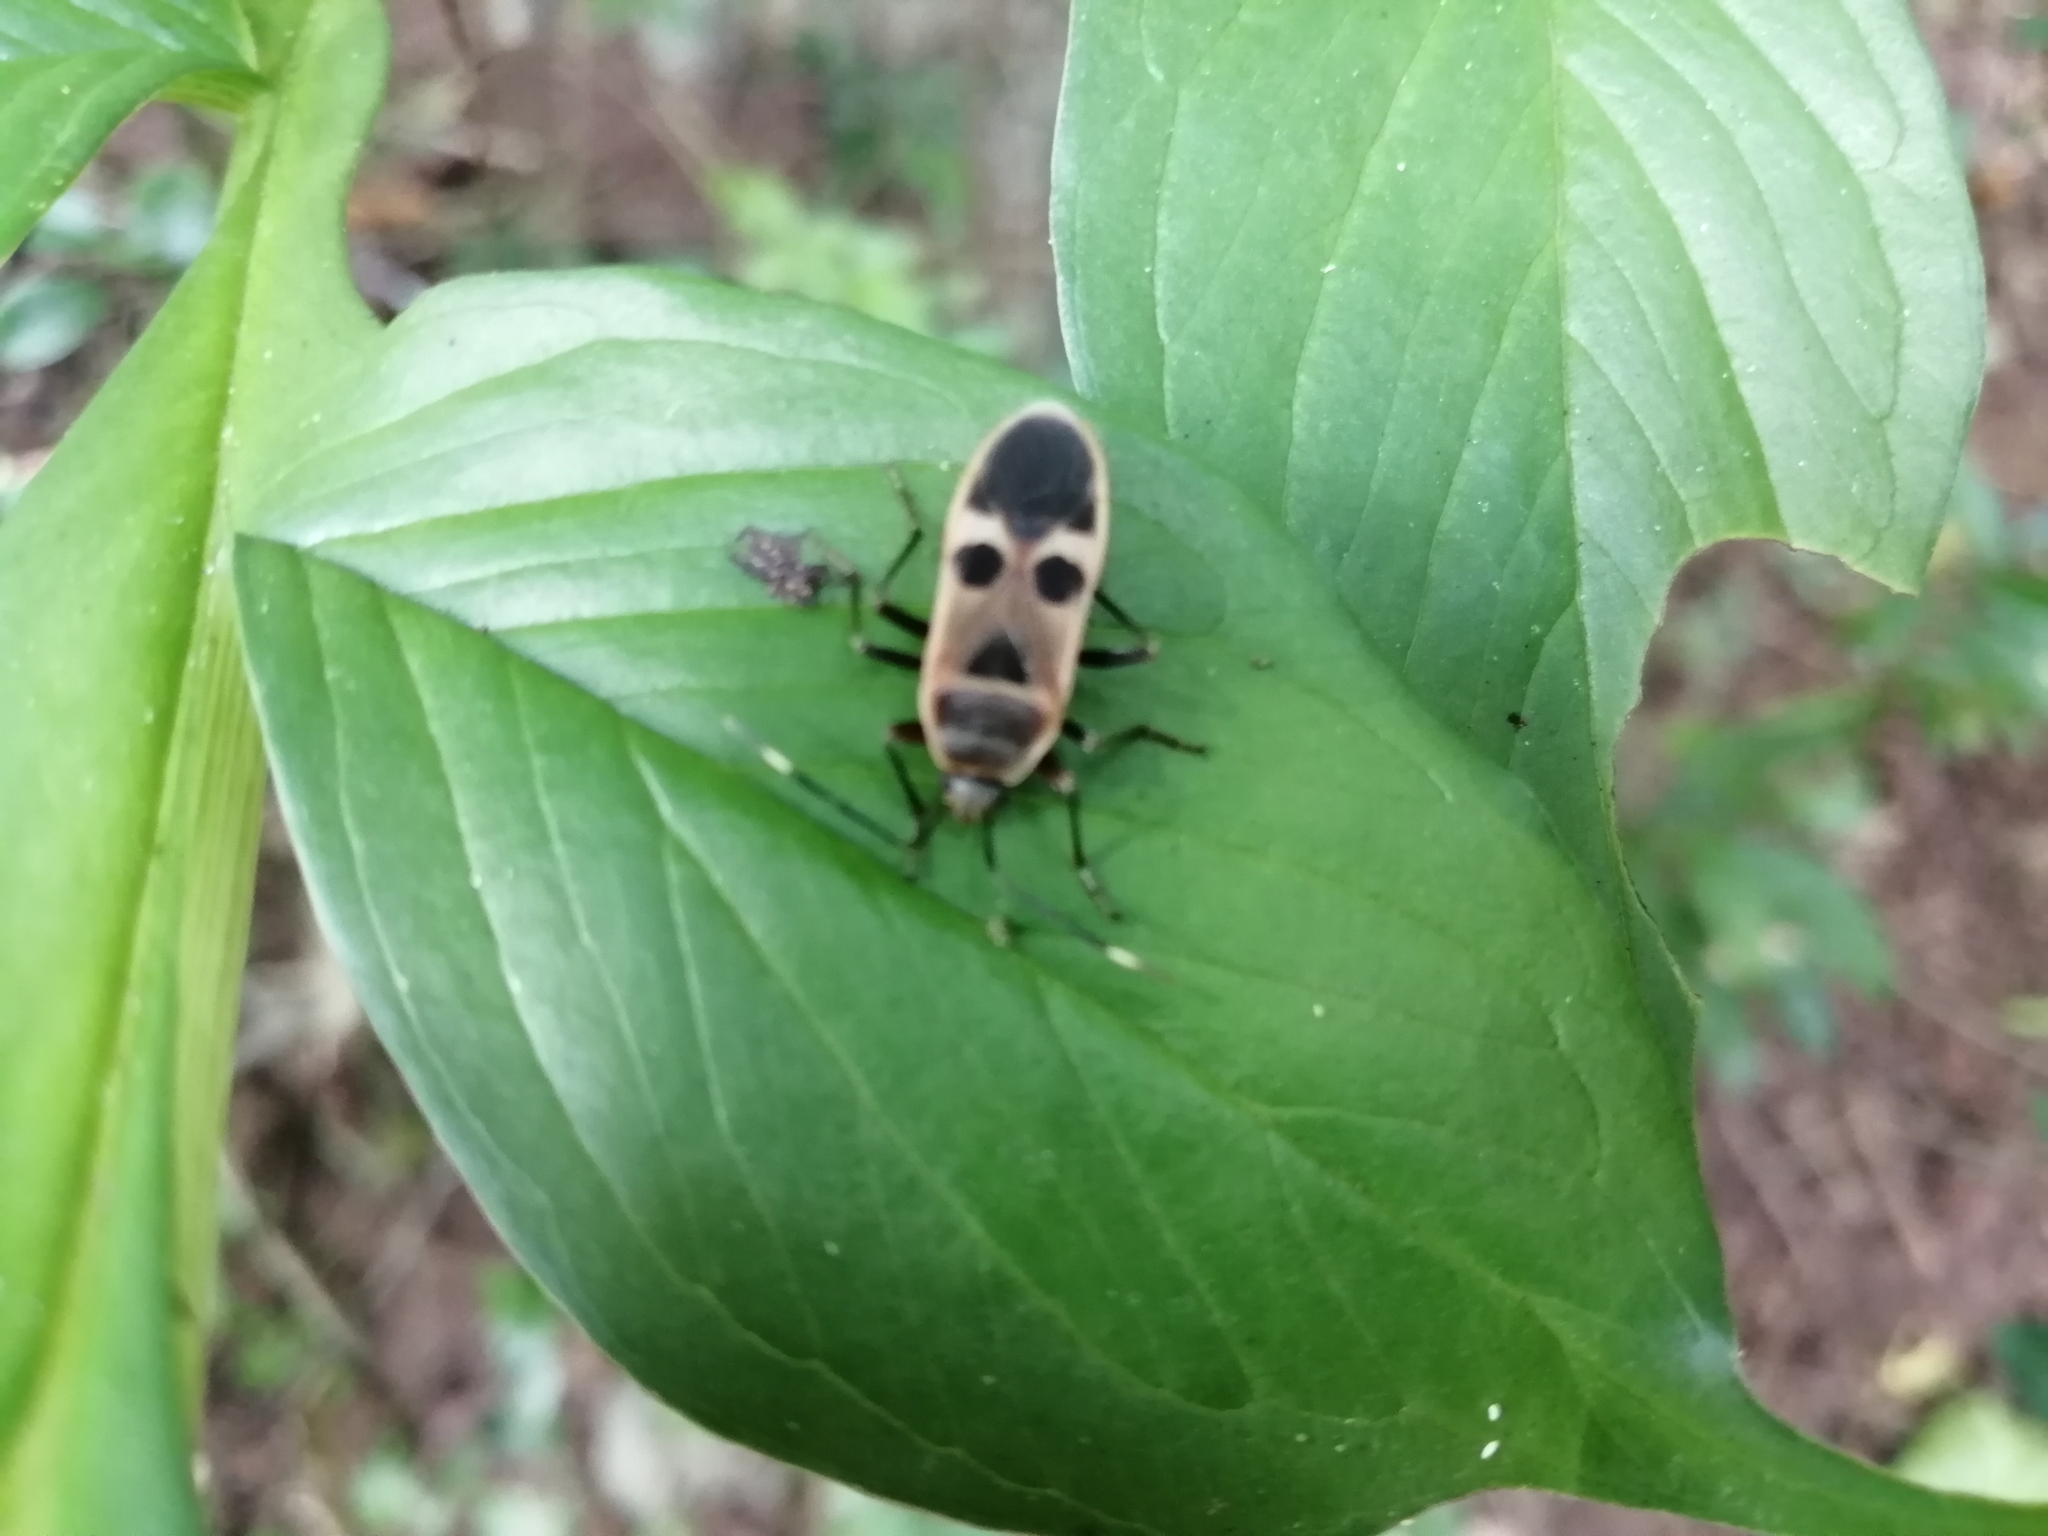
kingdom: Animalia
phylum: Arthropoda
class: Insecta
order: Hemiptera
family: Largidae
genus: Physopelta
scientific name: Physopelta gutta
